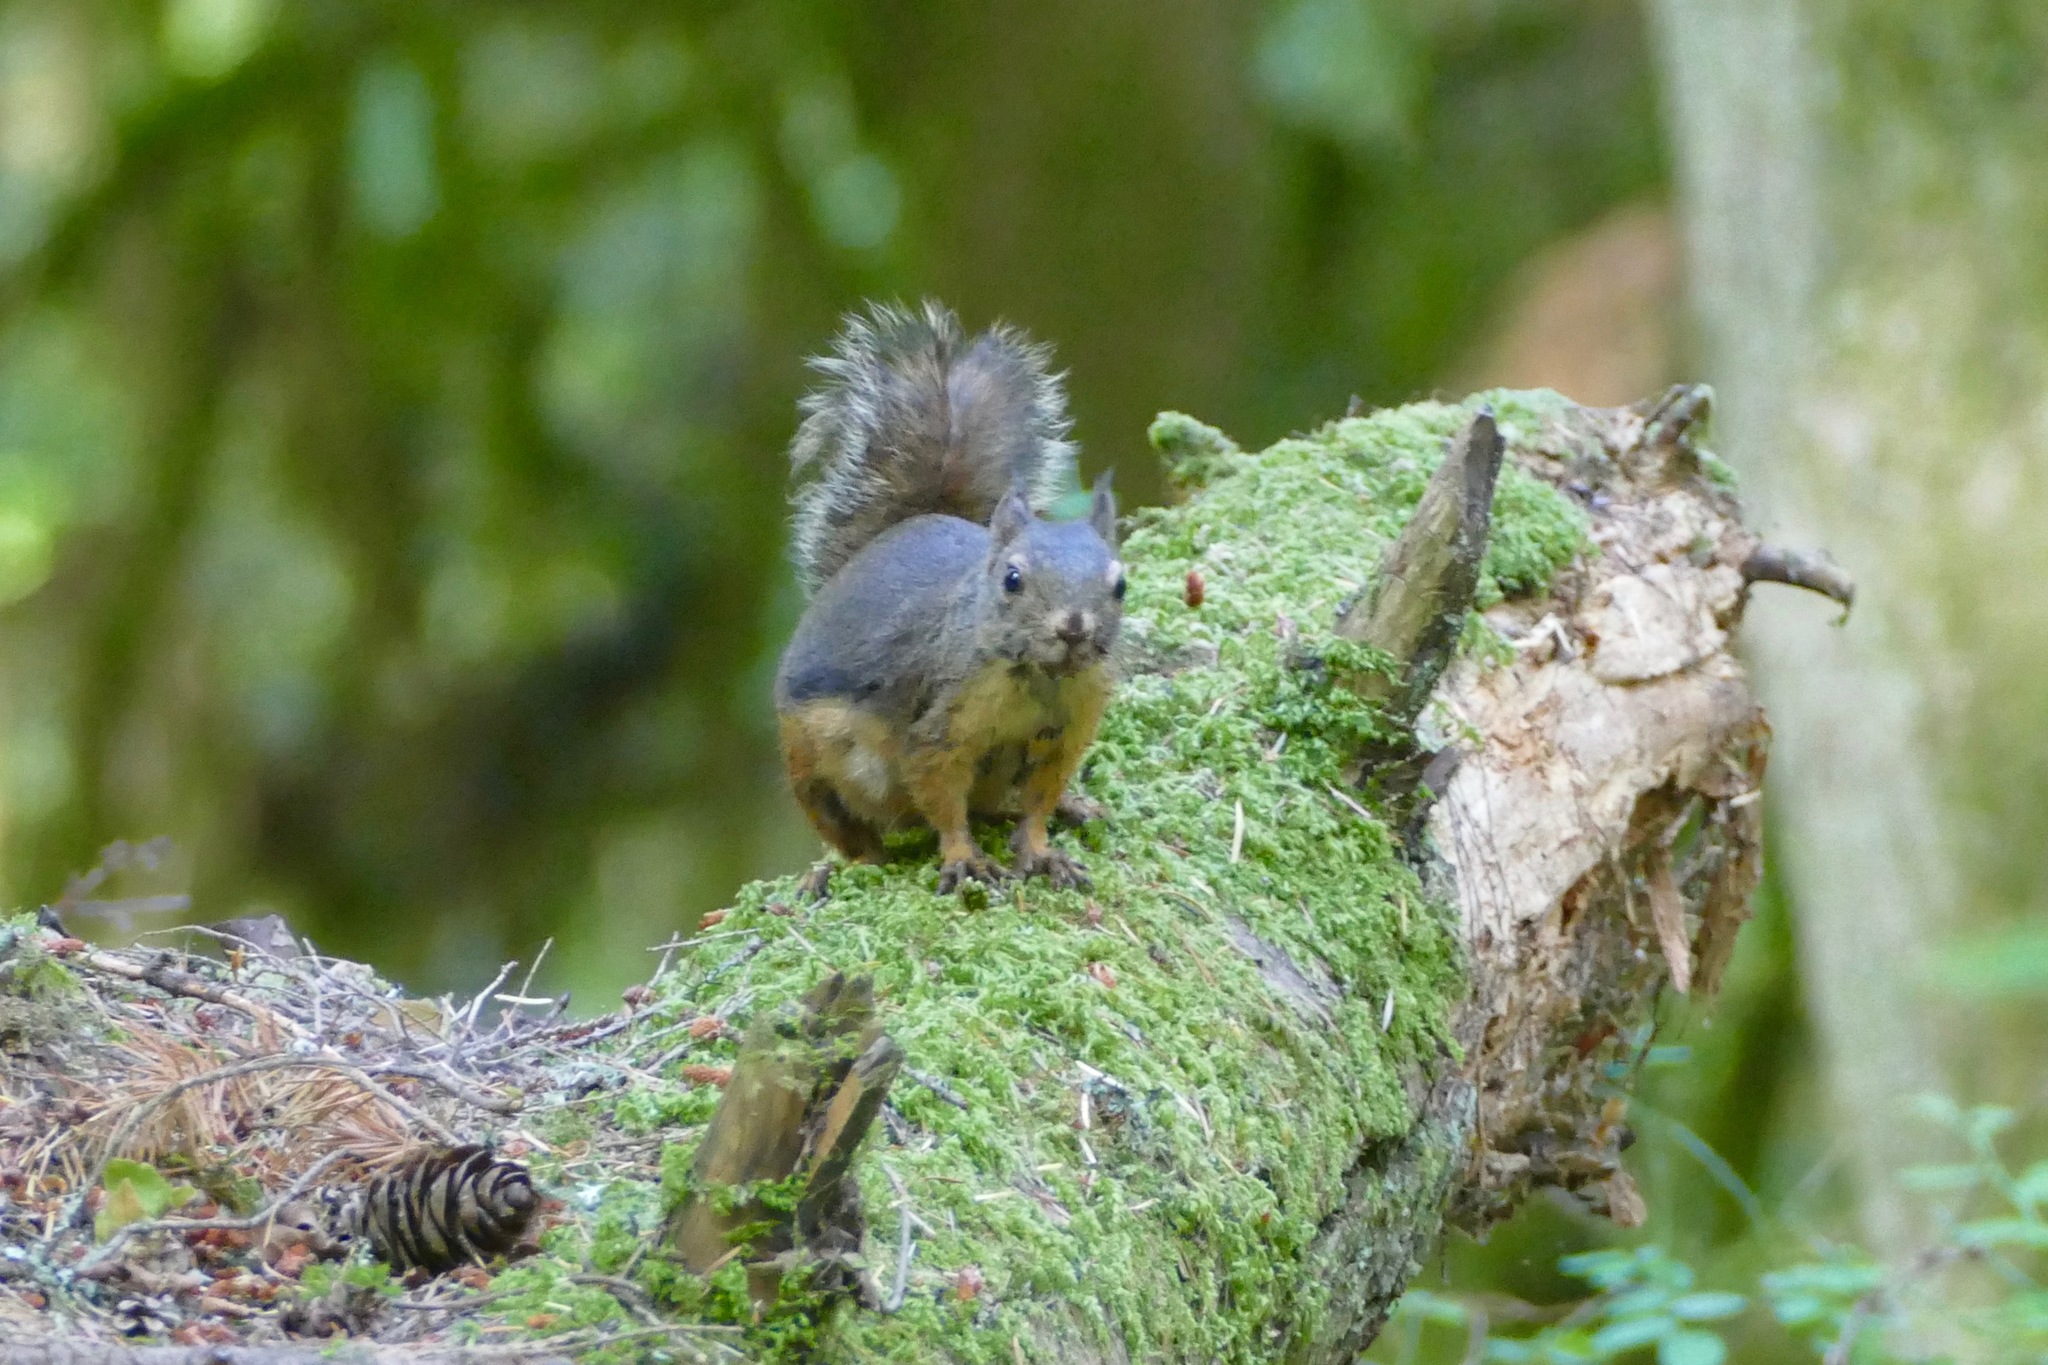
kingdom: Animalia
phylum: Chordata
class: Mammalia
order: Rodentia
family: Sciuridae
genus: Tamiasciurus
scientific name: Tamiasciurus douglasii
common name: Douglas's squirrel
